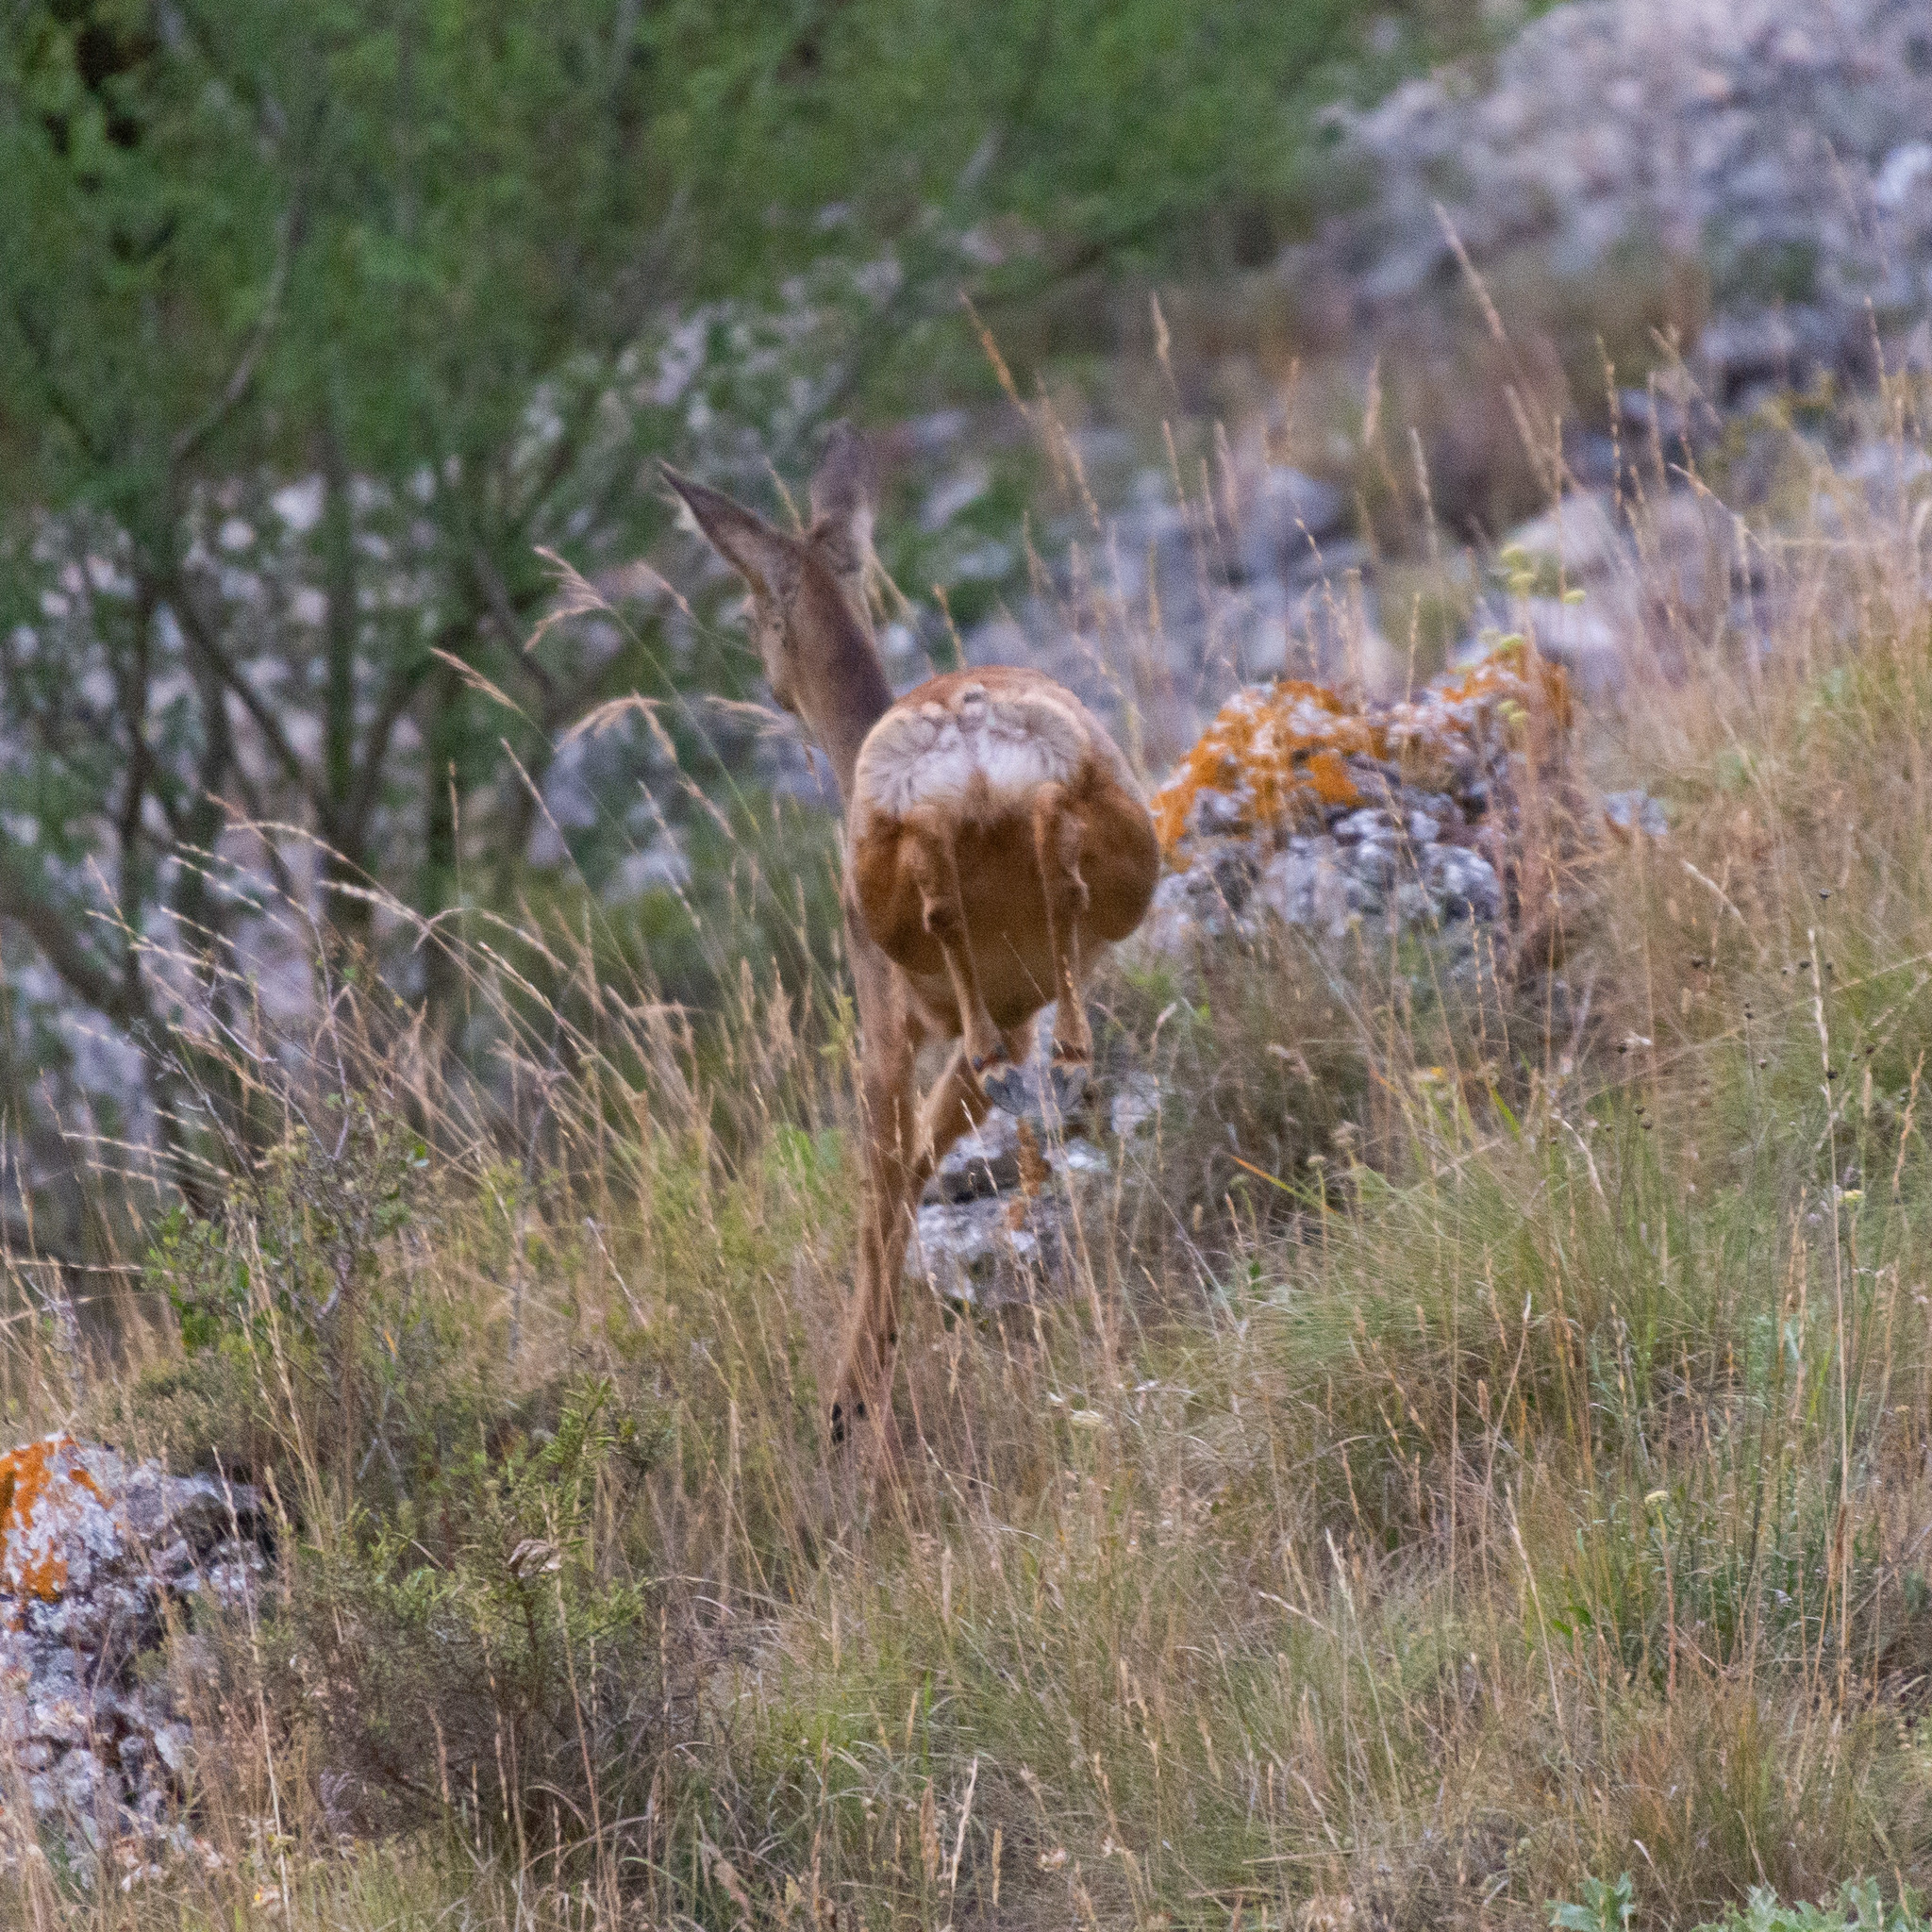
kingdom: Animalia
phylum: Chordata
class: Mammalia
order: Artiodactyla
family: Cervidae
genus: Capreolus
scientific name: Capreolus capreolus
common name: Western roe deer
